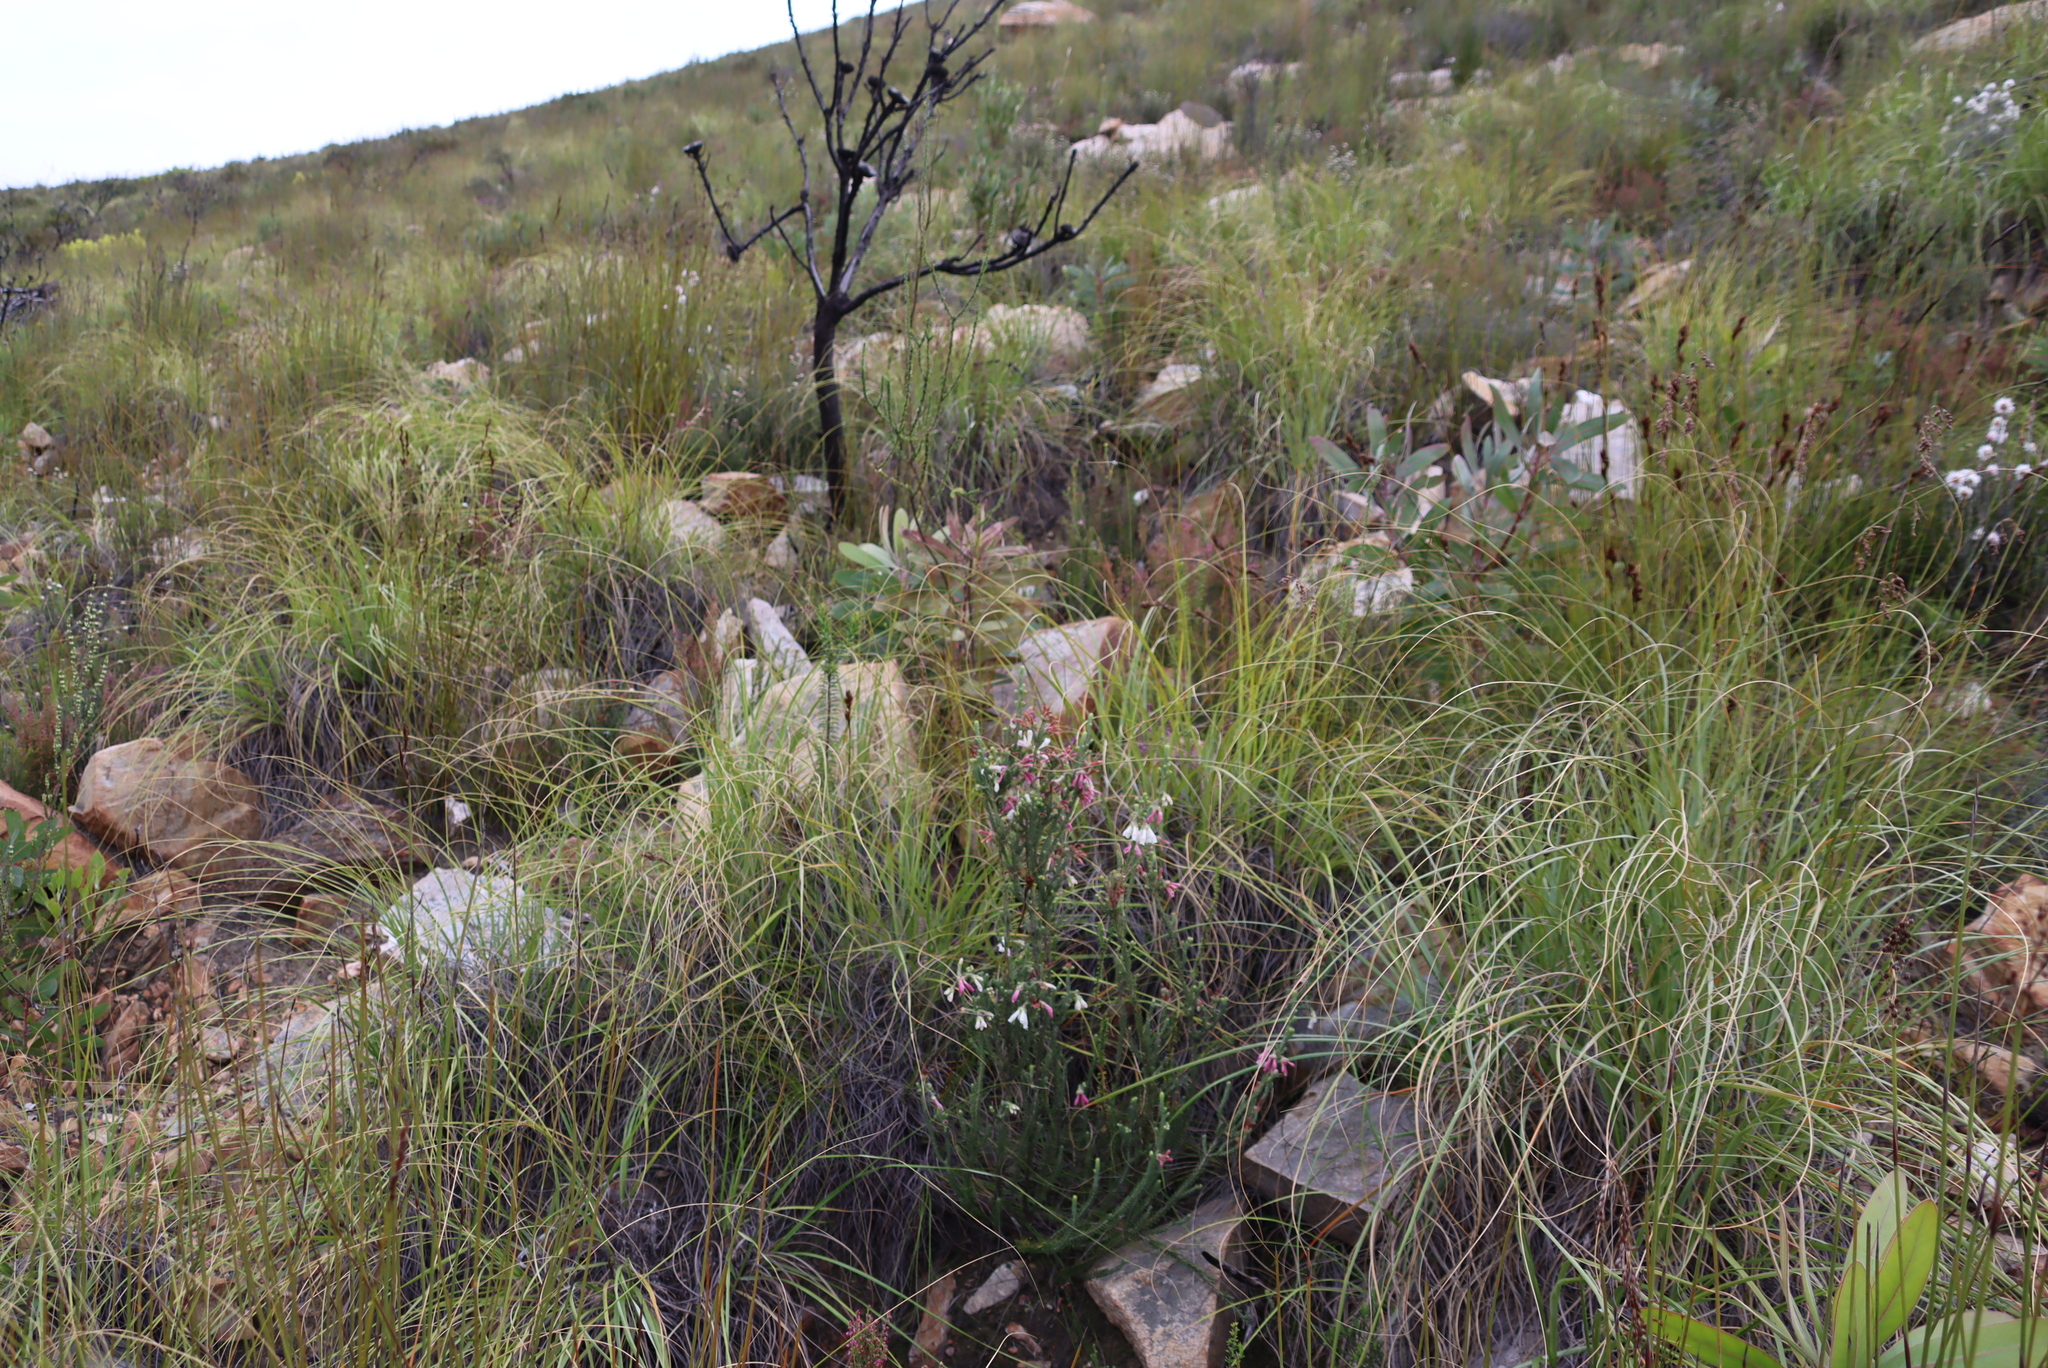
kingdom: Plantae
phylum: Tracheophyta
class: Magnoliopsida
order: Ericales
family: Ericaceae
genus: Erica
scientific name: Erica pectinifolia
